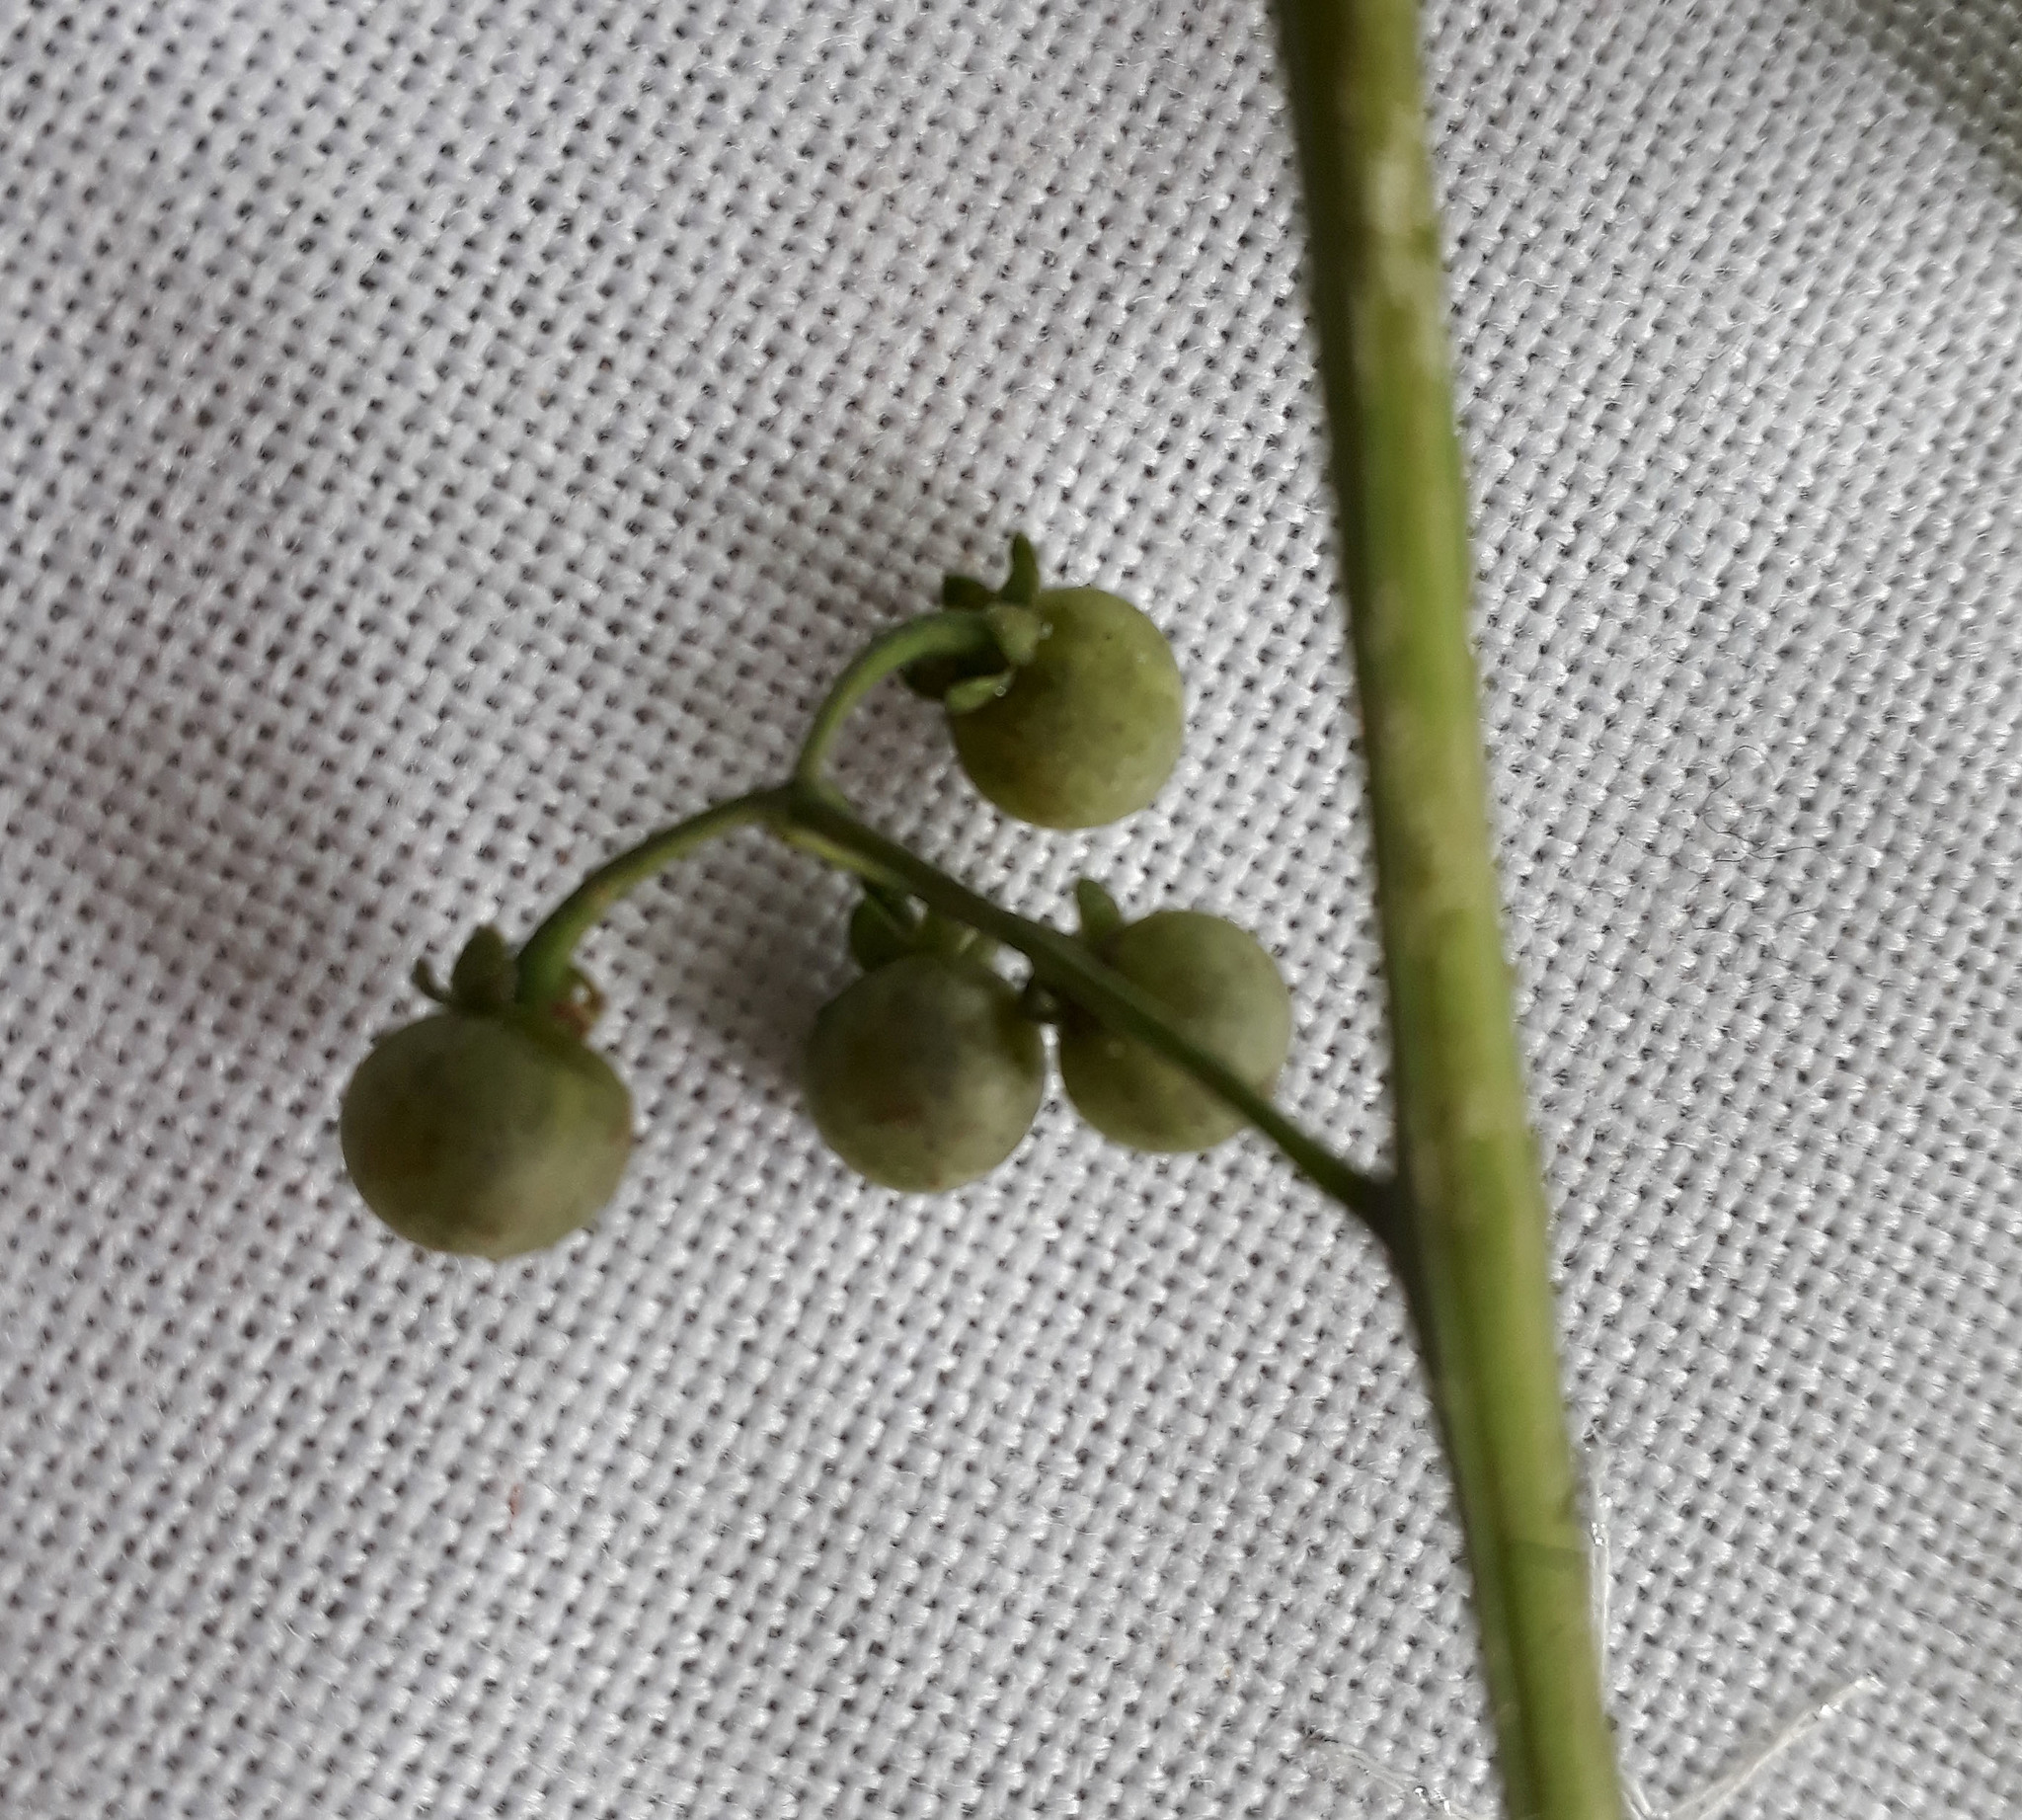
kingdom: Plantae
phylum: Tracheophyta
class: Magnoliopsida
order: Solanales
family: Solanaceae
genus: Solanum
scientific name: Solanum opacum
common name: Green-berry nightshade
